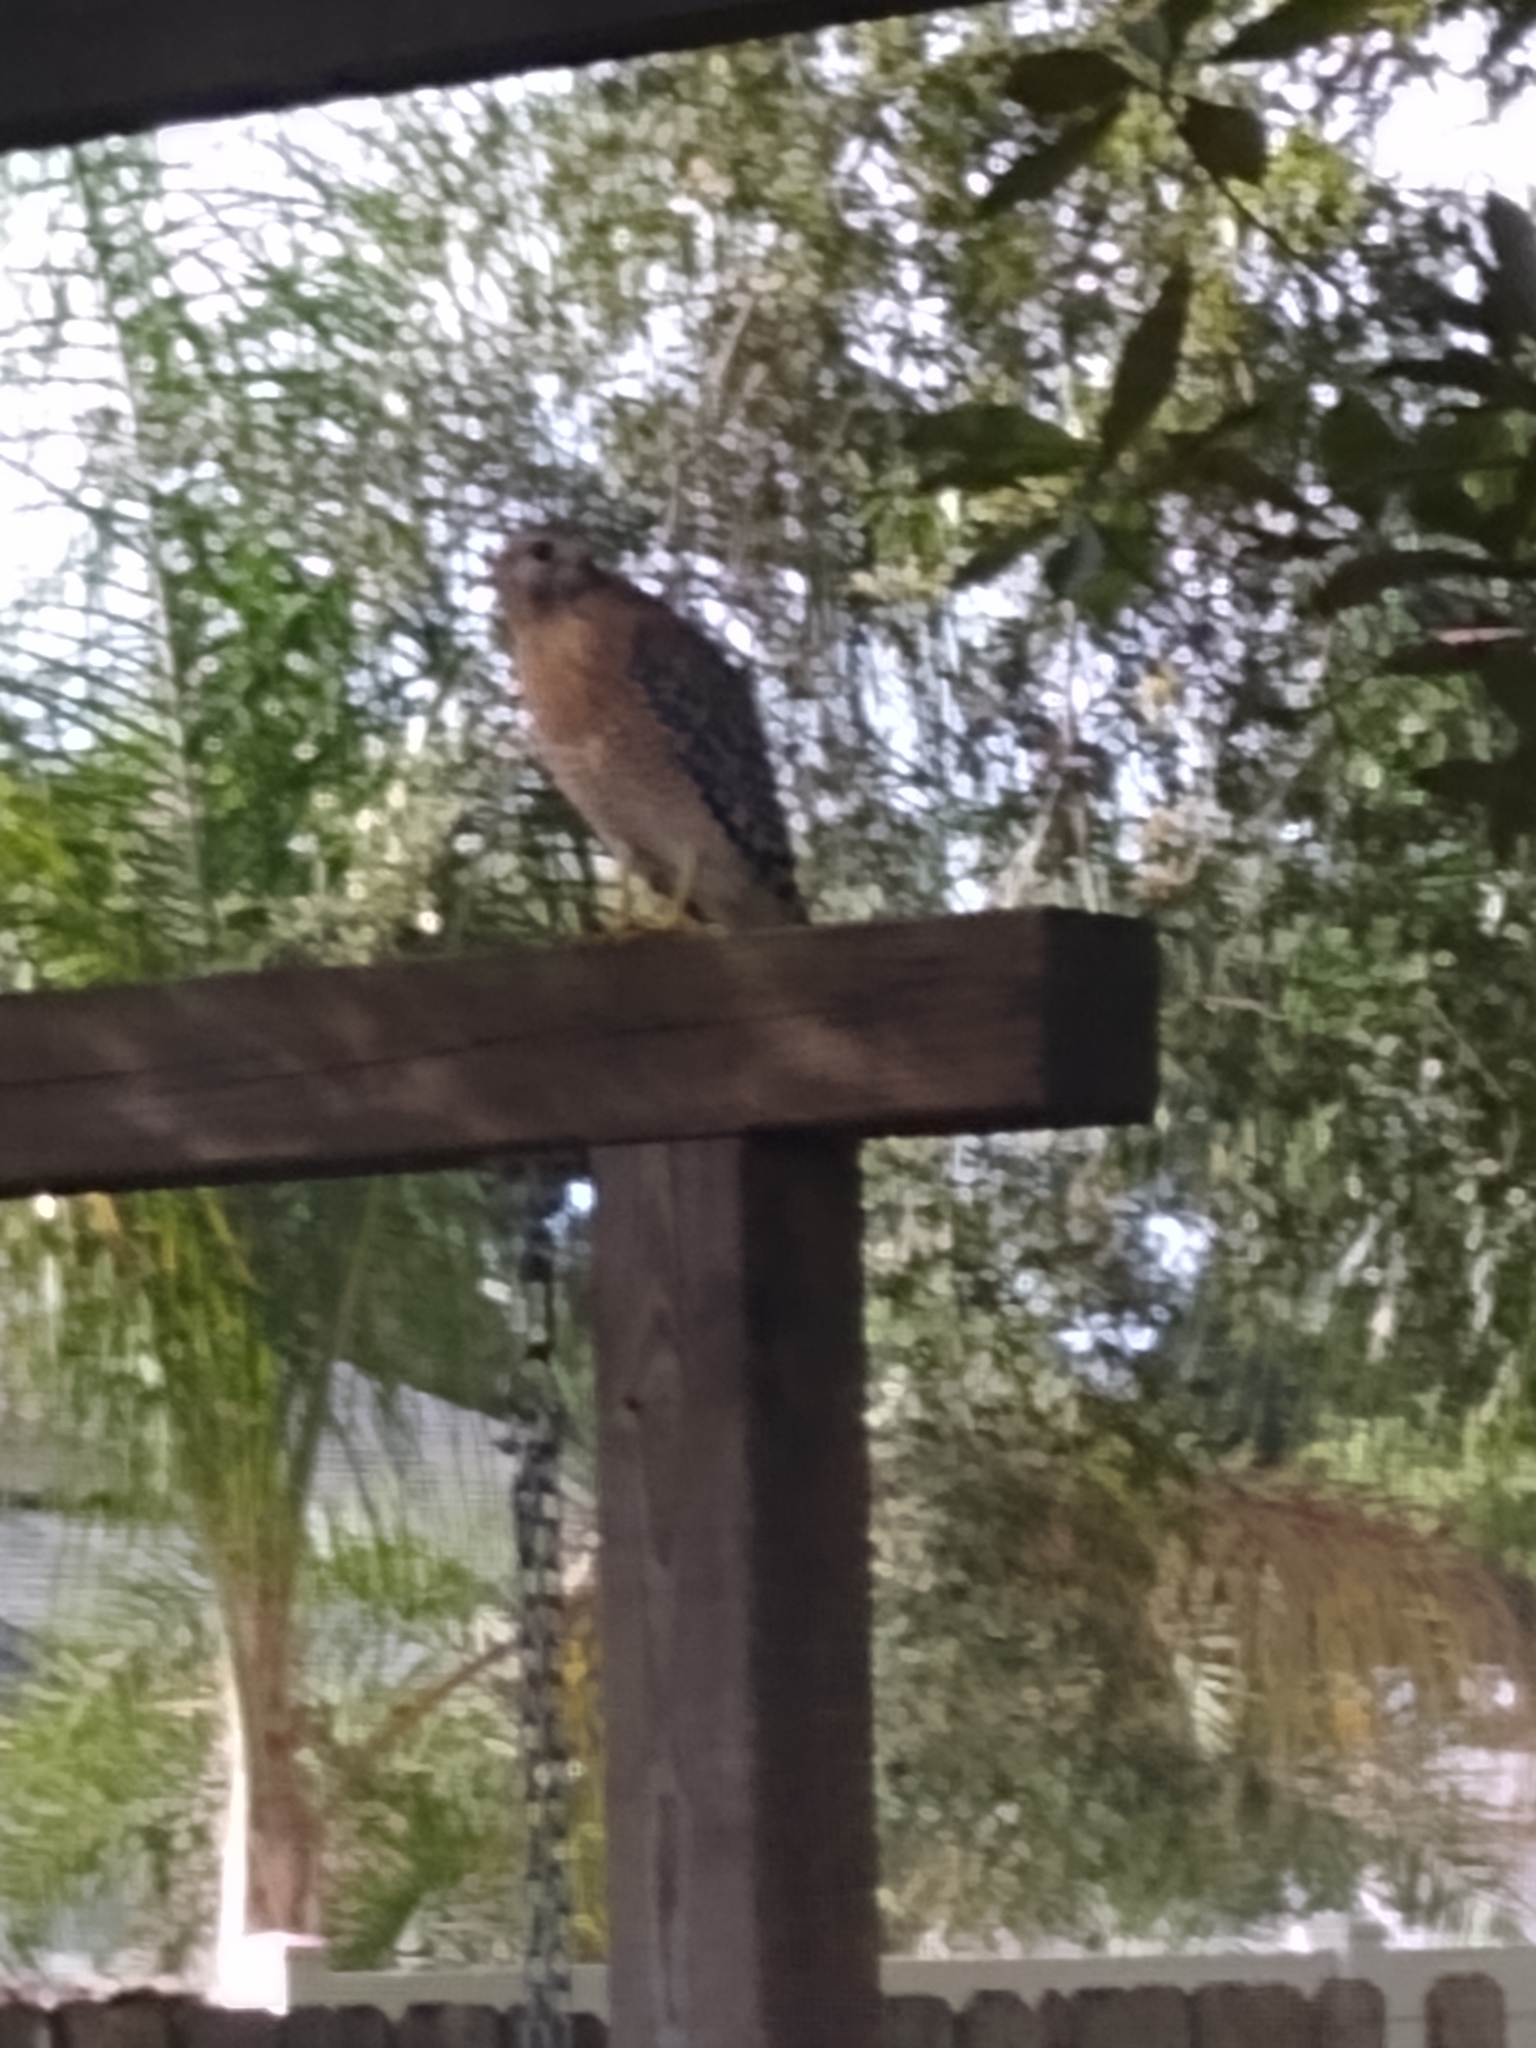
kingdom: Animalia
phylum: Chordata
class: Aves
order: Accipitriformes
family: Accipitridae
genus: Buteo
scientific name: Buteo lineatus
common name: Red-shouldered hawk
